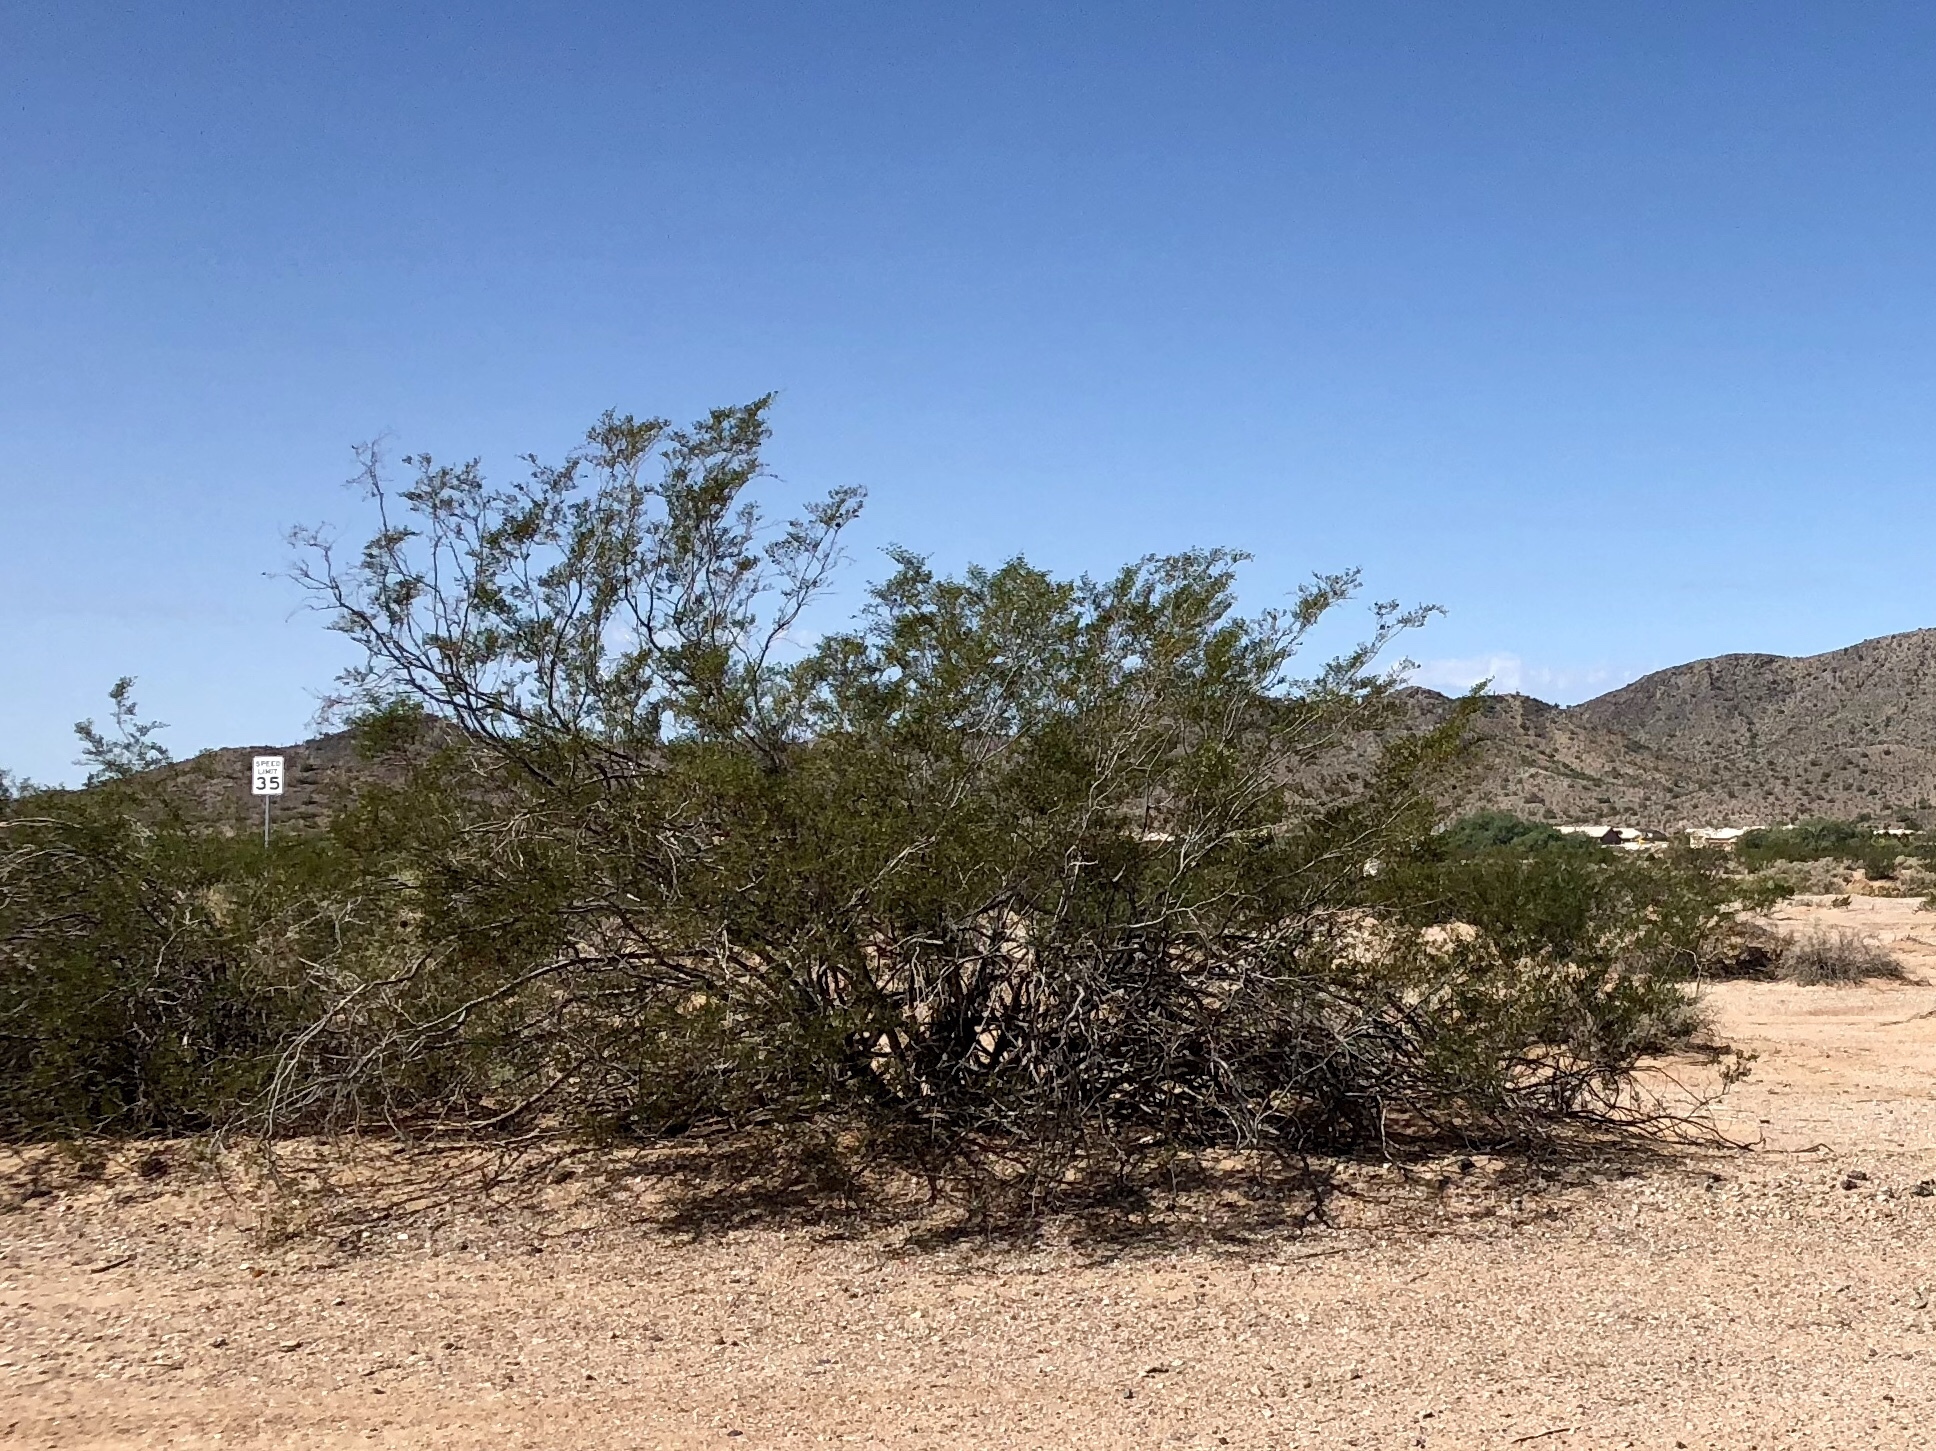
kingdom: Plantae
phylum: Tracheophyta
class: Magnoliopsida
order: Zygophyllales
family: Zygophyllaceae
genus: Larrea
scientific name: Larrea tridentata
